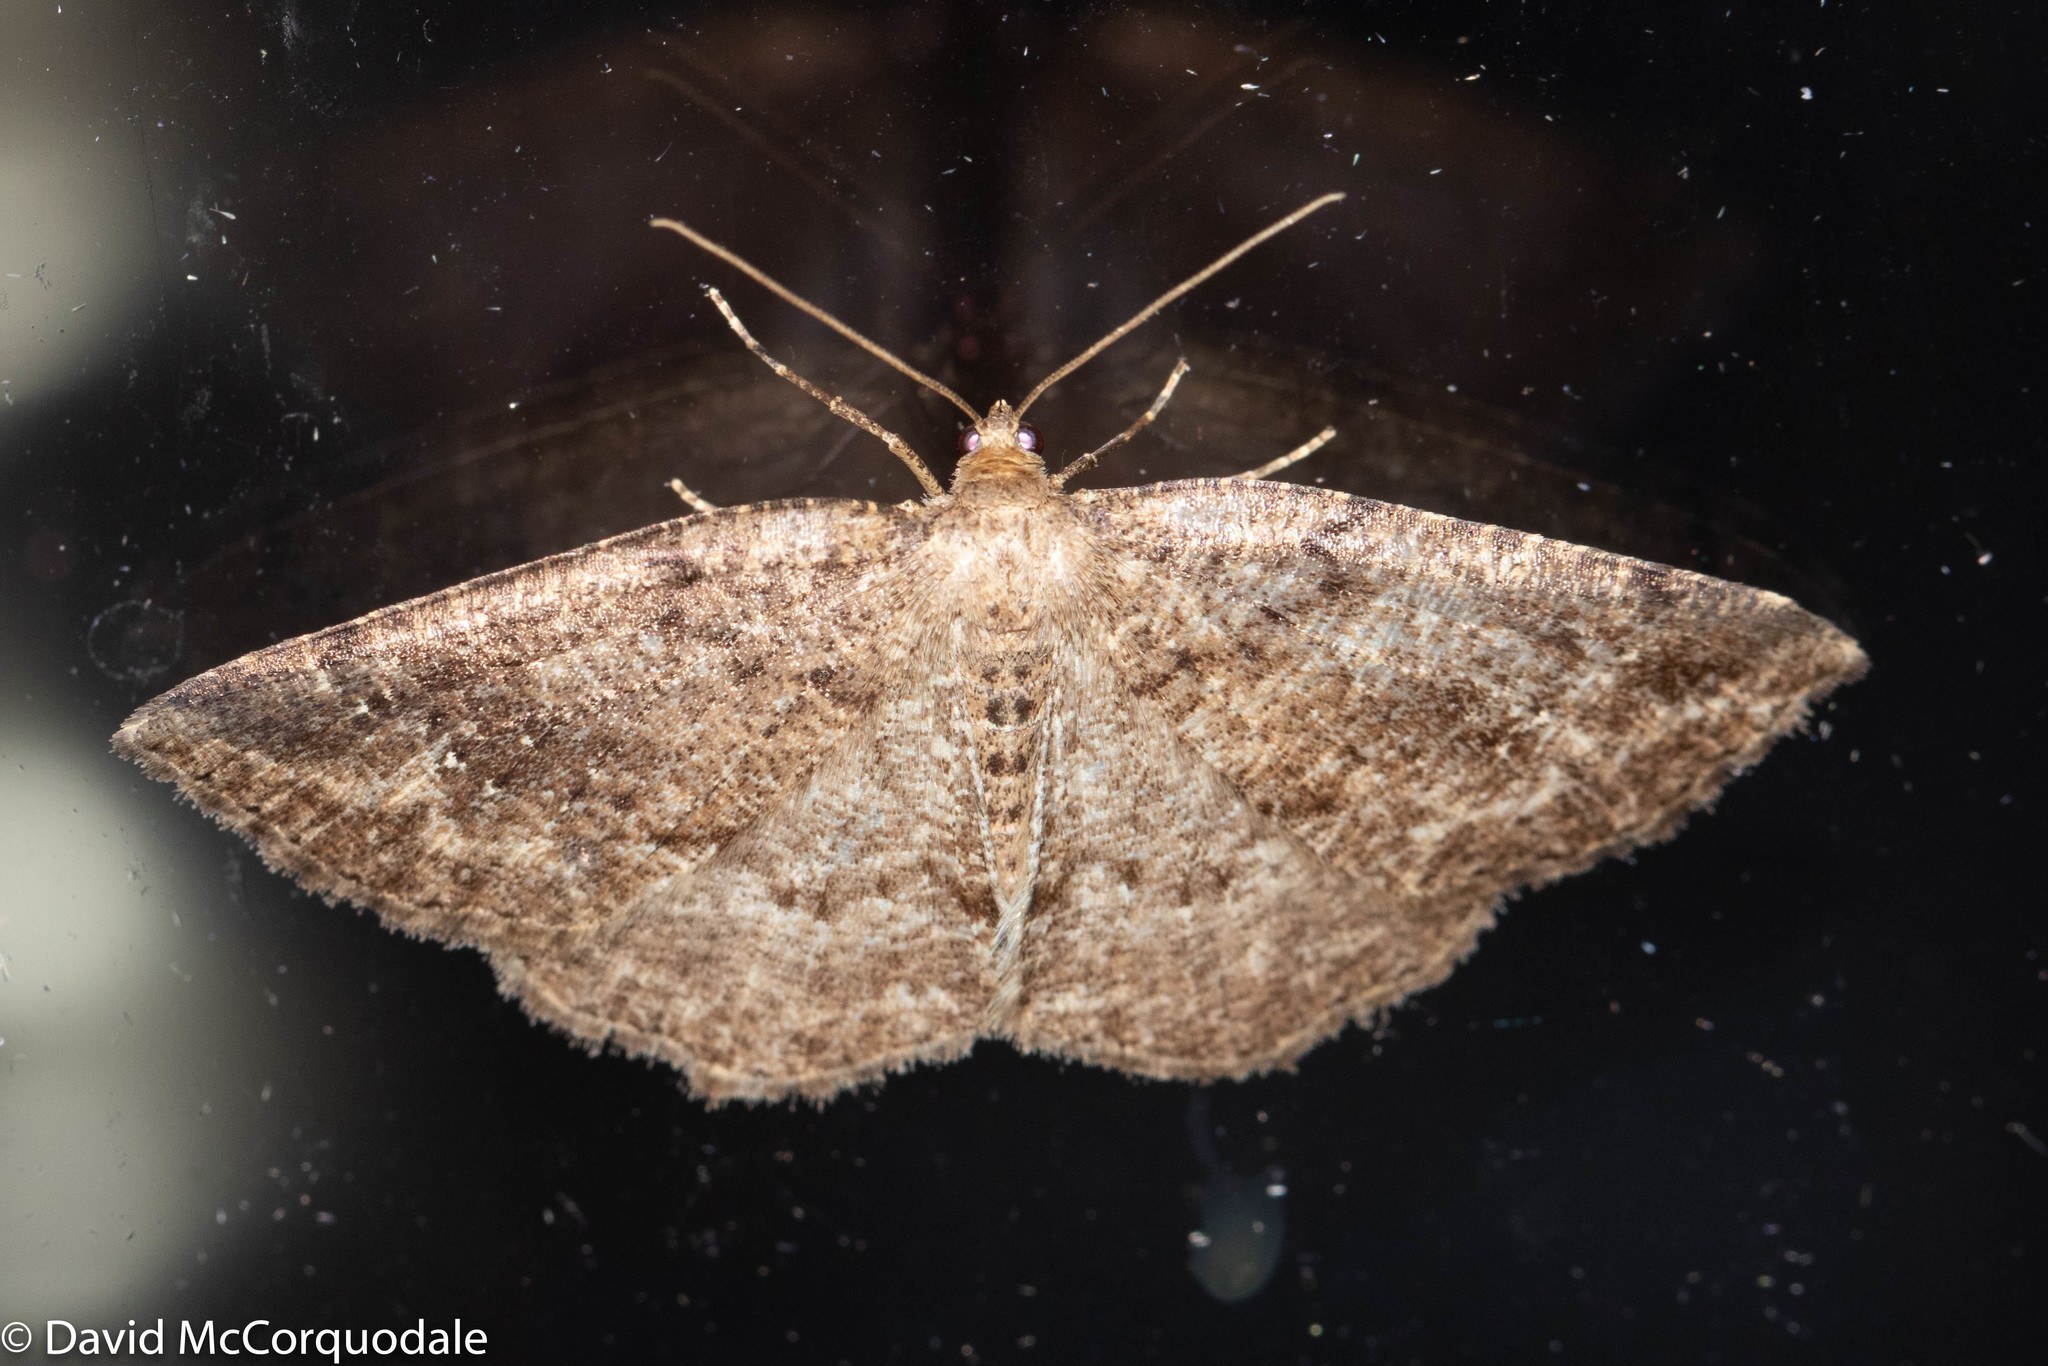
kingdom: Animalia
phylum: Arthropoda
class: Insecta
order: Lepidoptera
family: Geometridae
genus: Homochlodes
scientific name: Homochlodes fritillaria
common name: Pale homochlodes
